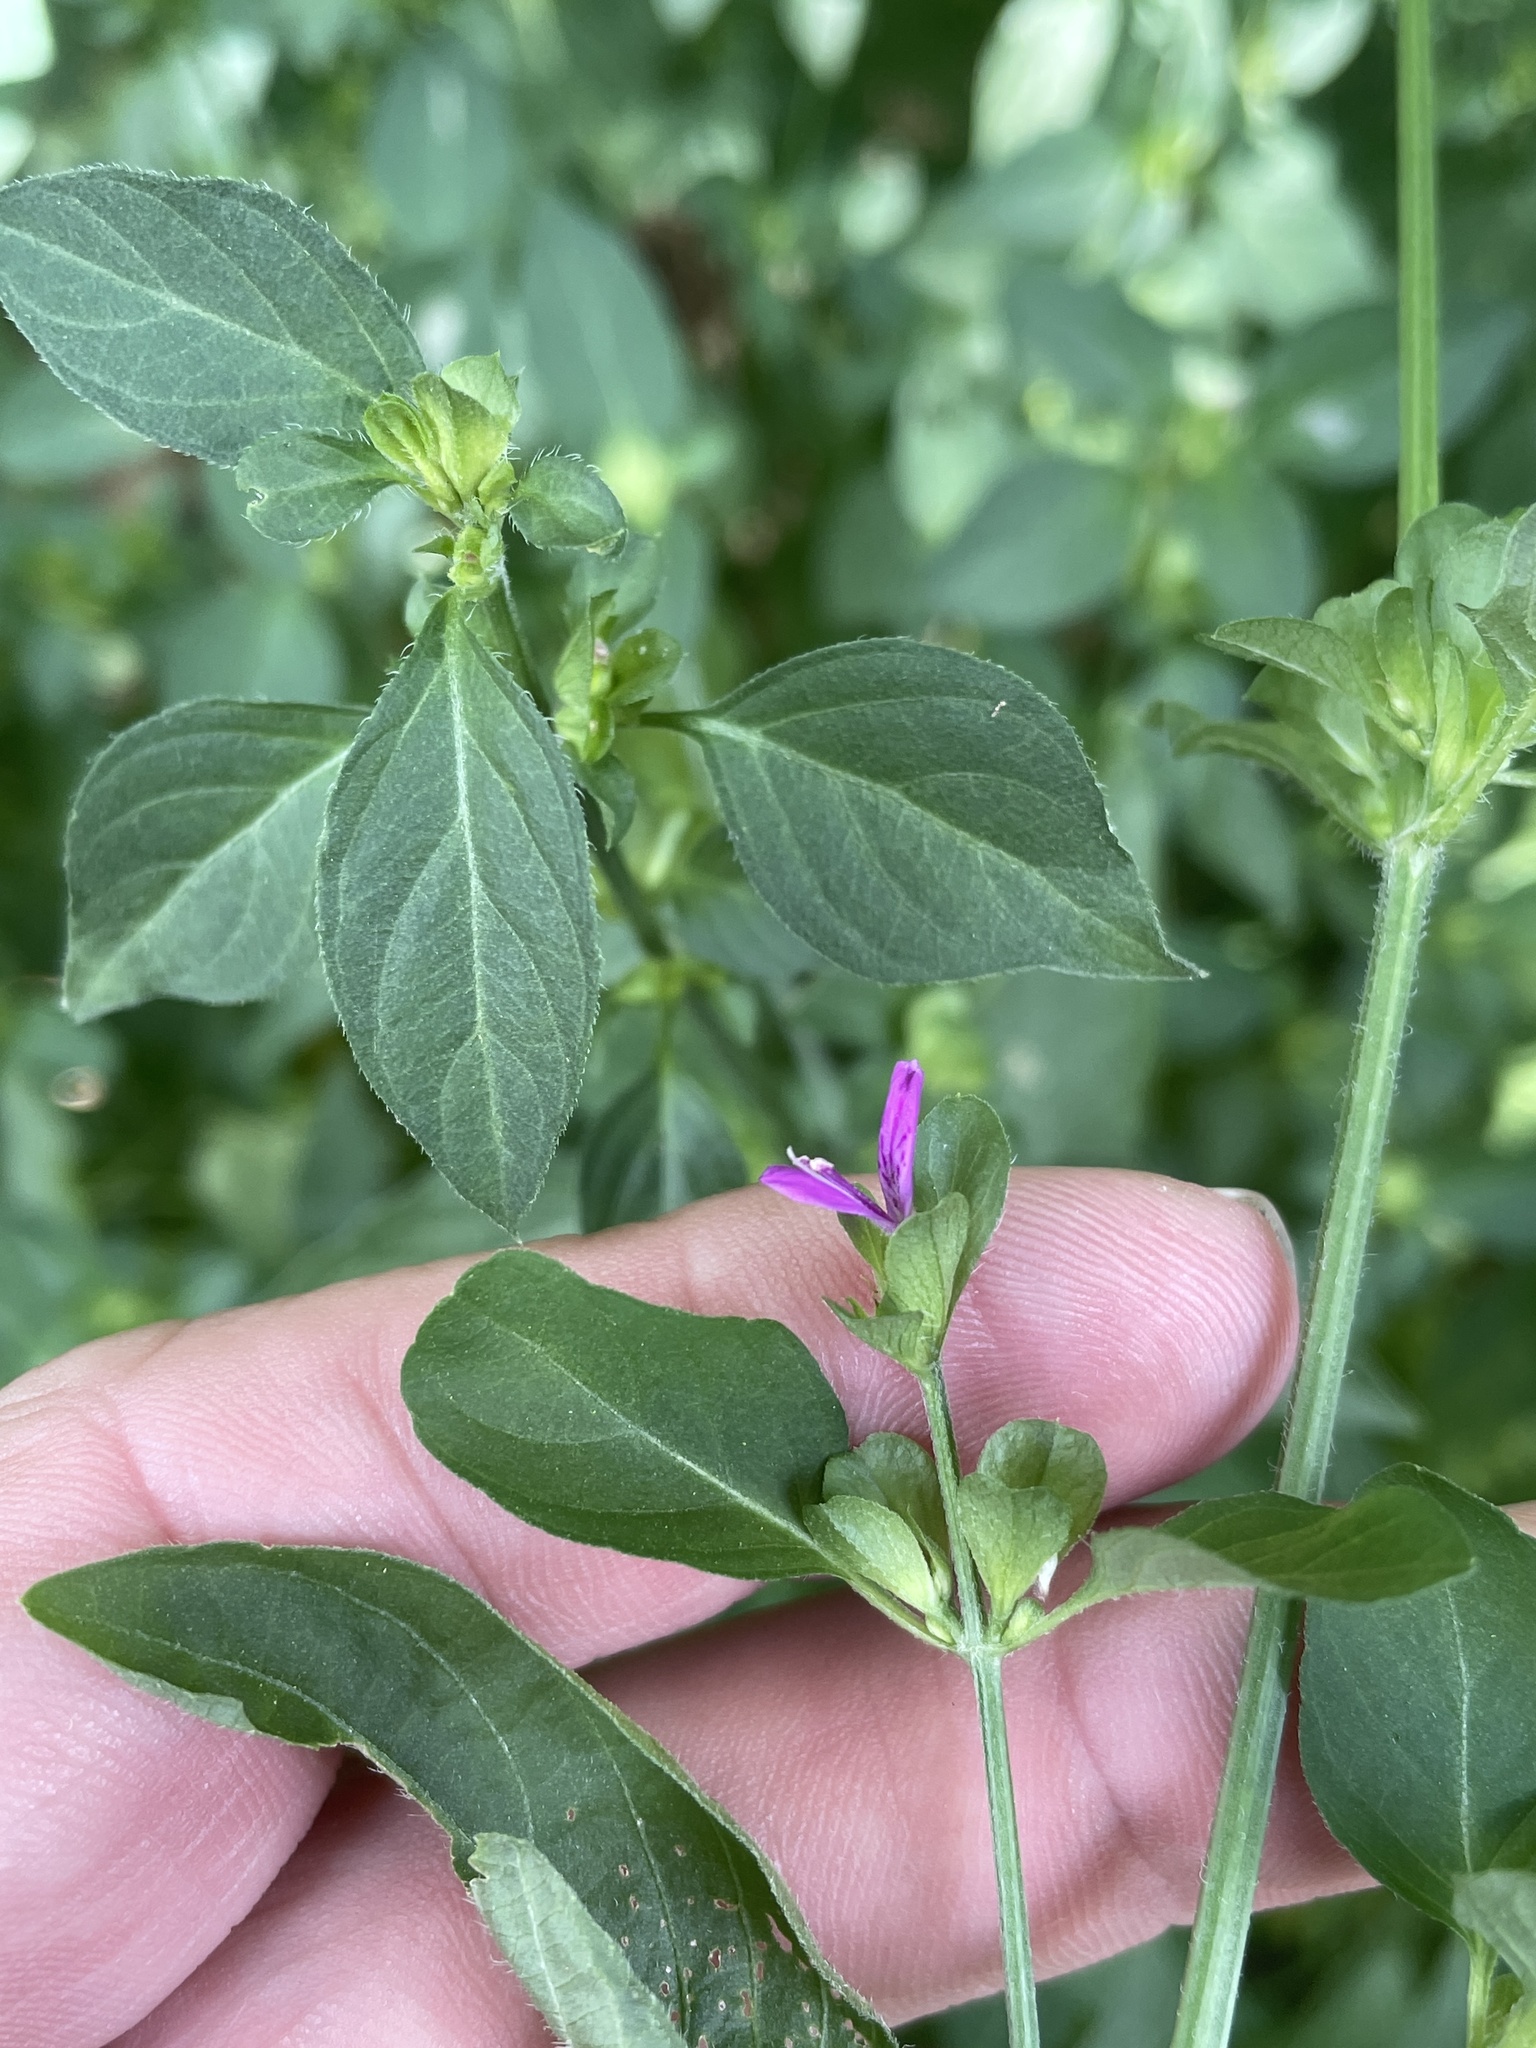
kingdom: Plantae
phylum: Tracheophyta
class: Magnoliopsida
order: Lamiales
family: Acanthaceae
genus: Dicliptera
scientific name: Dicliptera brachiata
